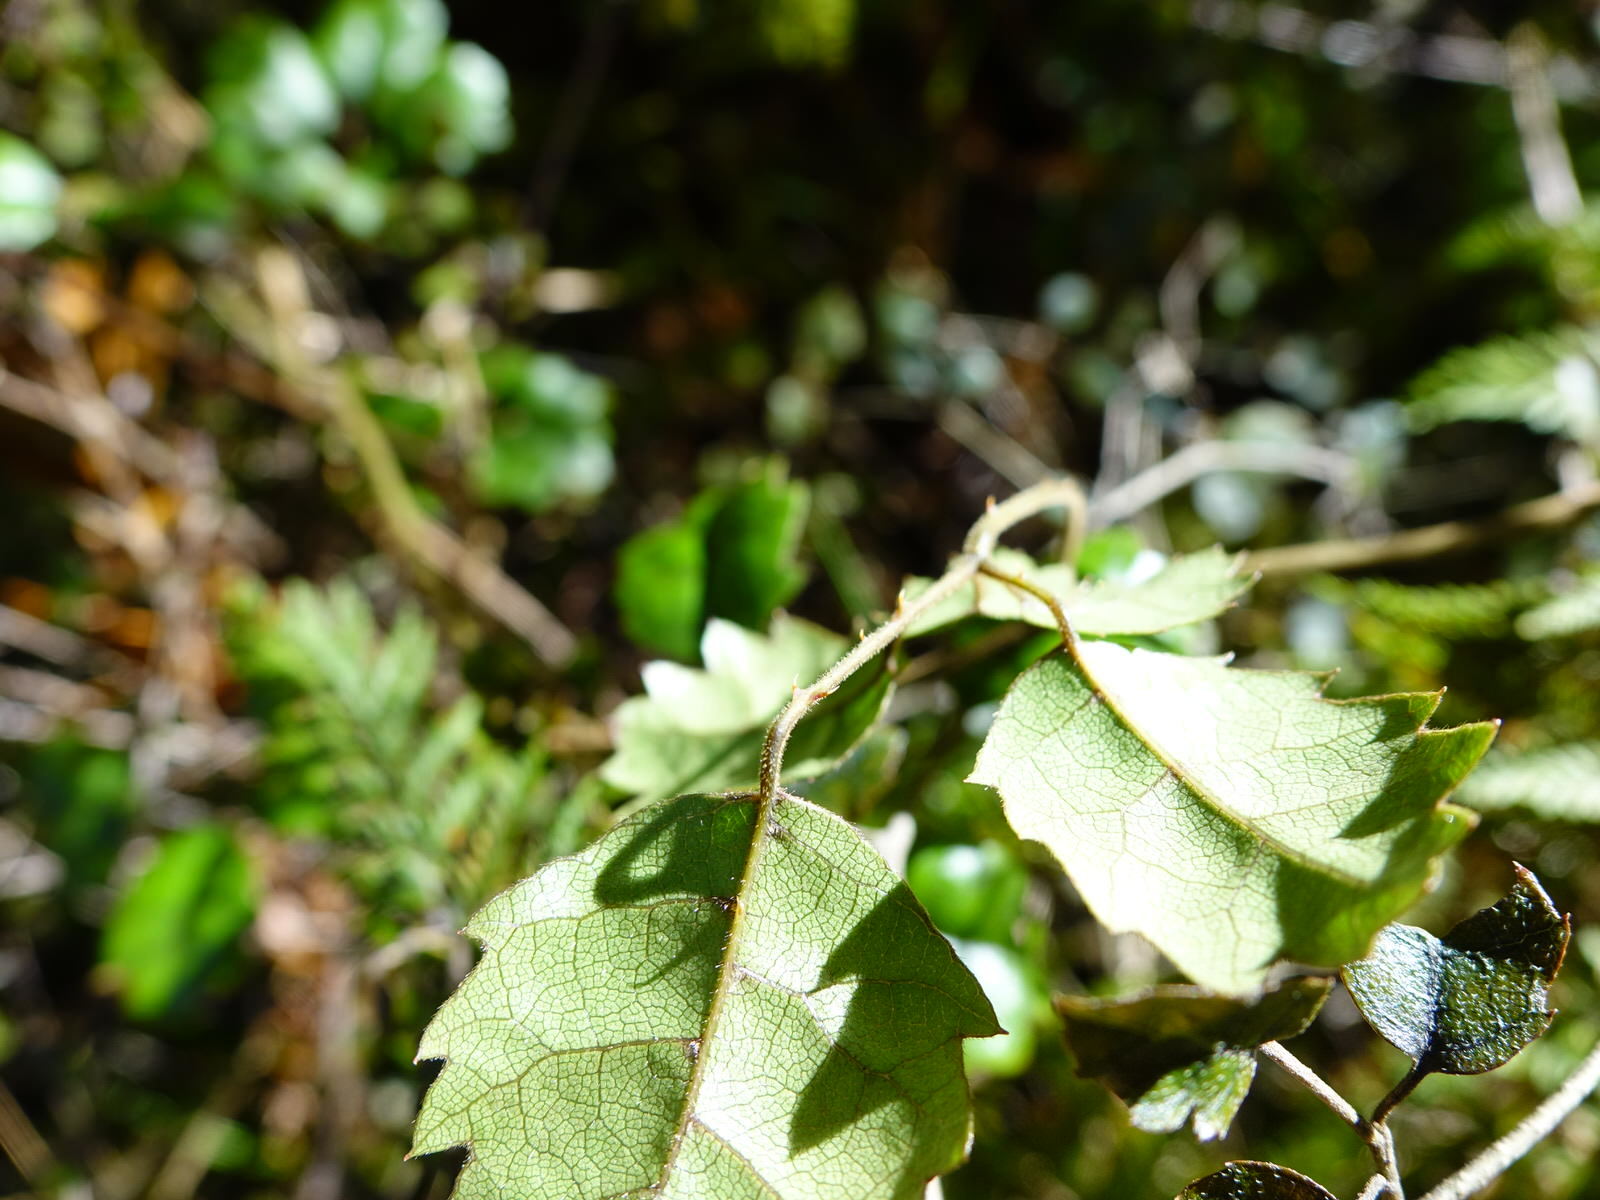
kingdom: Plantae
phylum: Tracheophyta
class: Magnoliopsida
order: Rosales
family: Rosaceae
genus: Rubus
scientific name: Rubus australis
